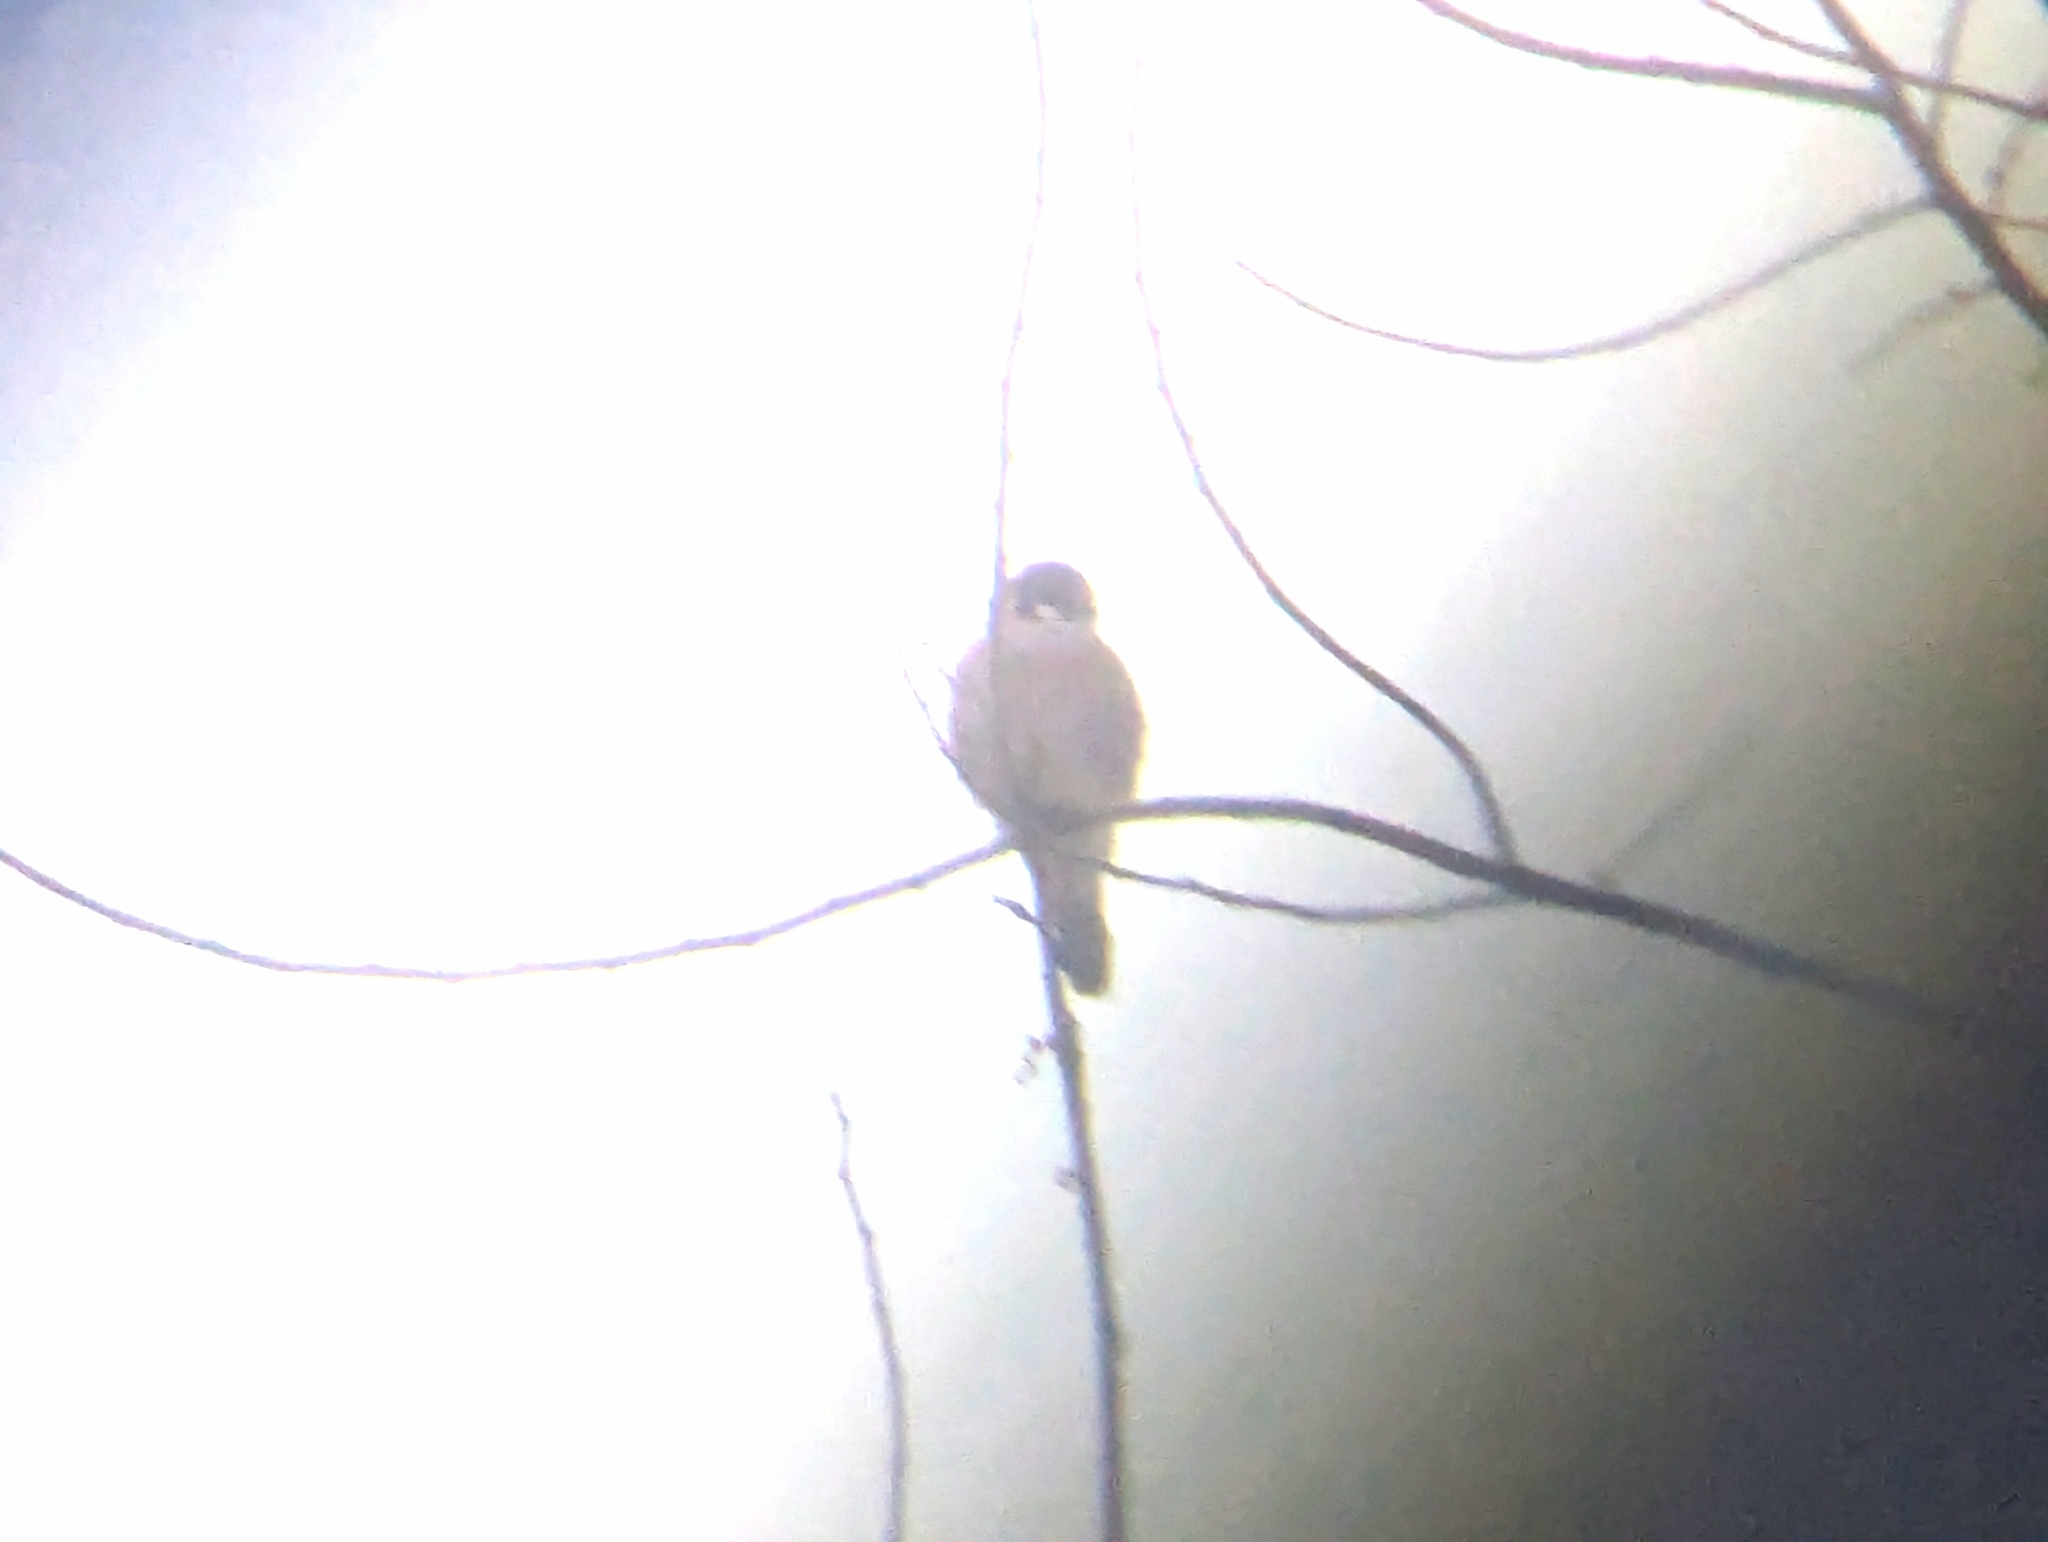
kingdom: Animalia
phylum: Chordata
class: Aves
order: Falconiformes
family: Falconidae
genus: Falco
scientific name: Falco sparverius
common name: American kestrel
